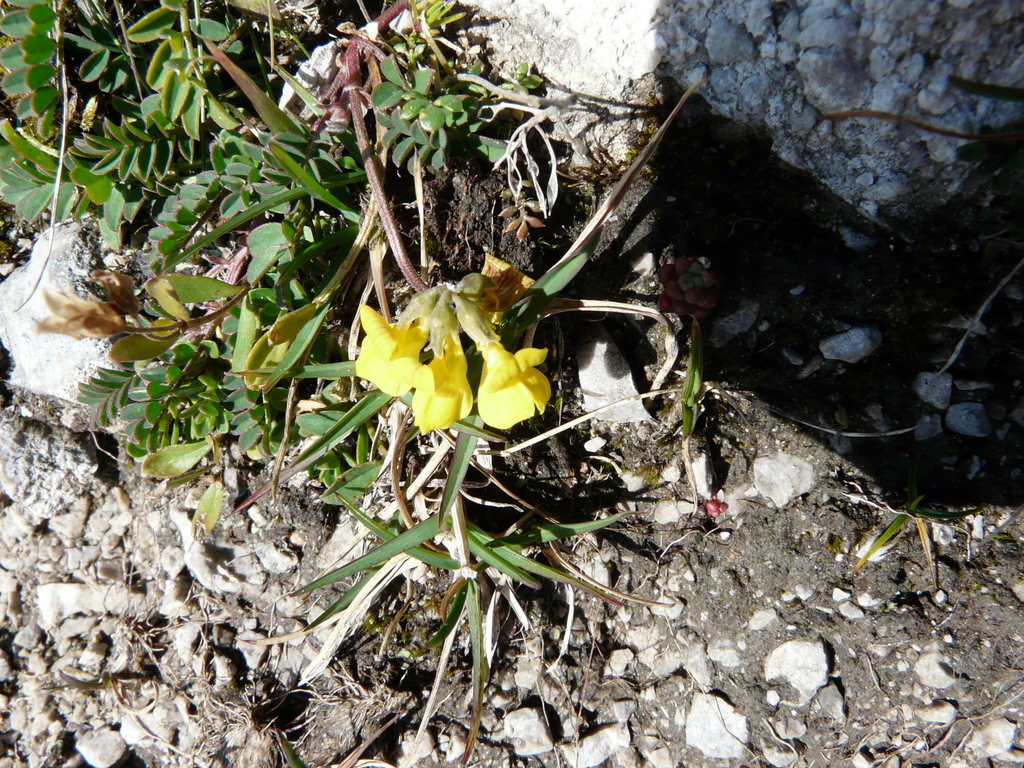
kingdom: Plantae
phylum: Tracheophyta
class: Magnoliopsida
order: Fabales
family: Fabaceae
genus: Hippocrepis
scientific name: Hippocrepis comosa
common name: Horseshoe vetch
